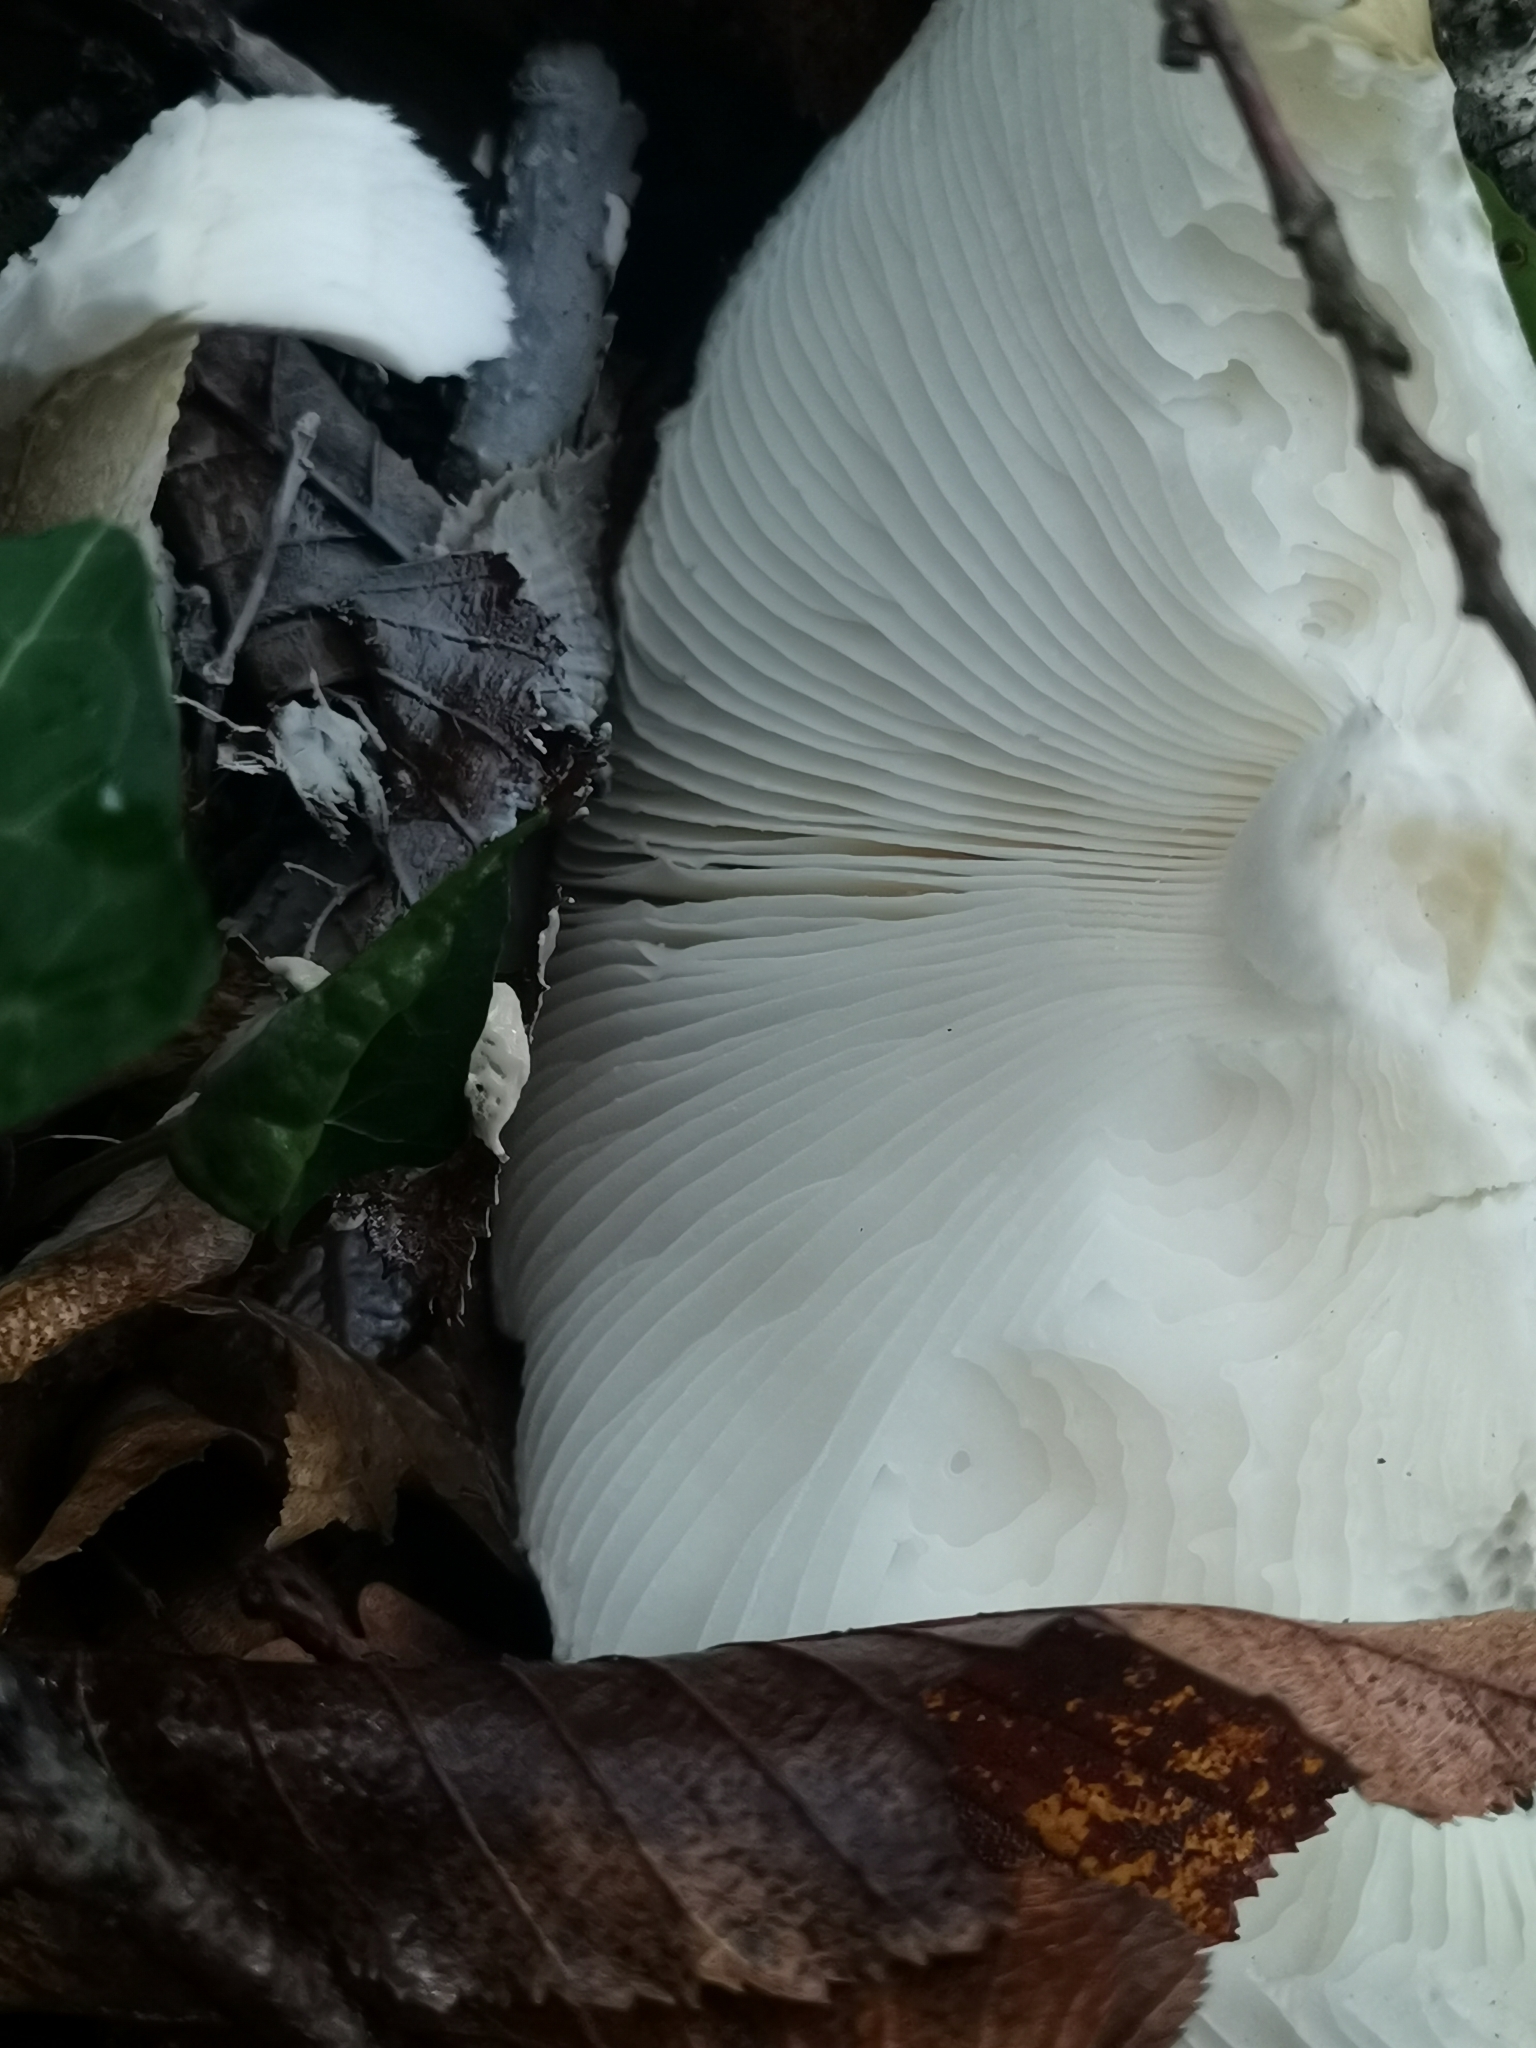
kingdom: Fungi
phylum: Basidiomycota
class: Agaricomycetes
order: Agaricales
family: Amanitaceae
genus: Amanita
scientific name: Amanita phalloides
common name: Death cap
